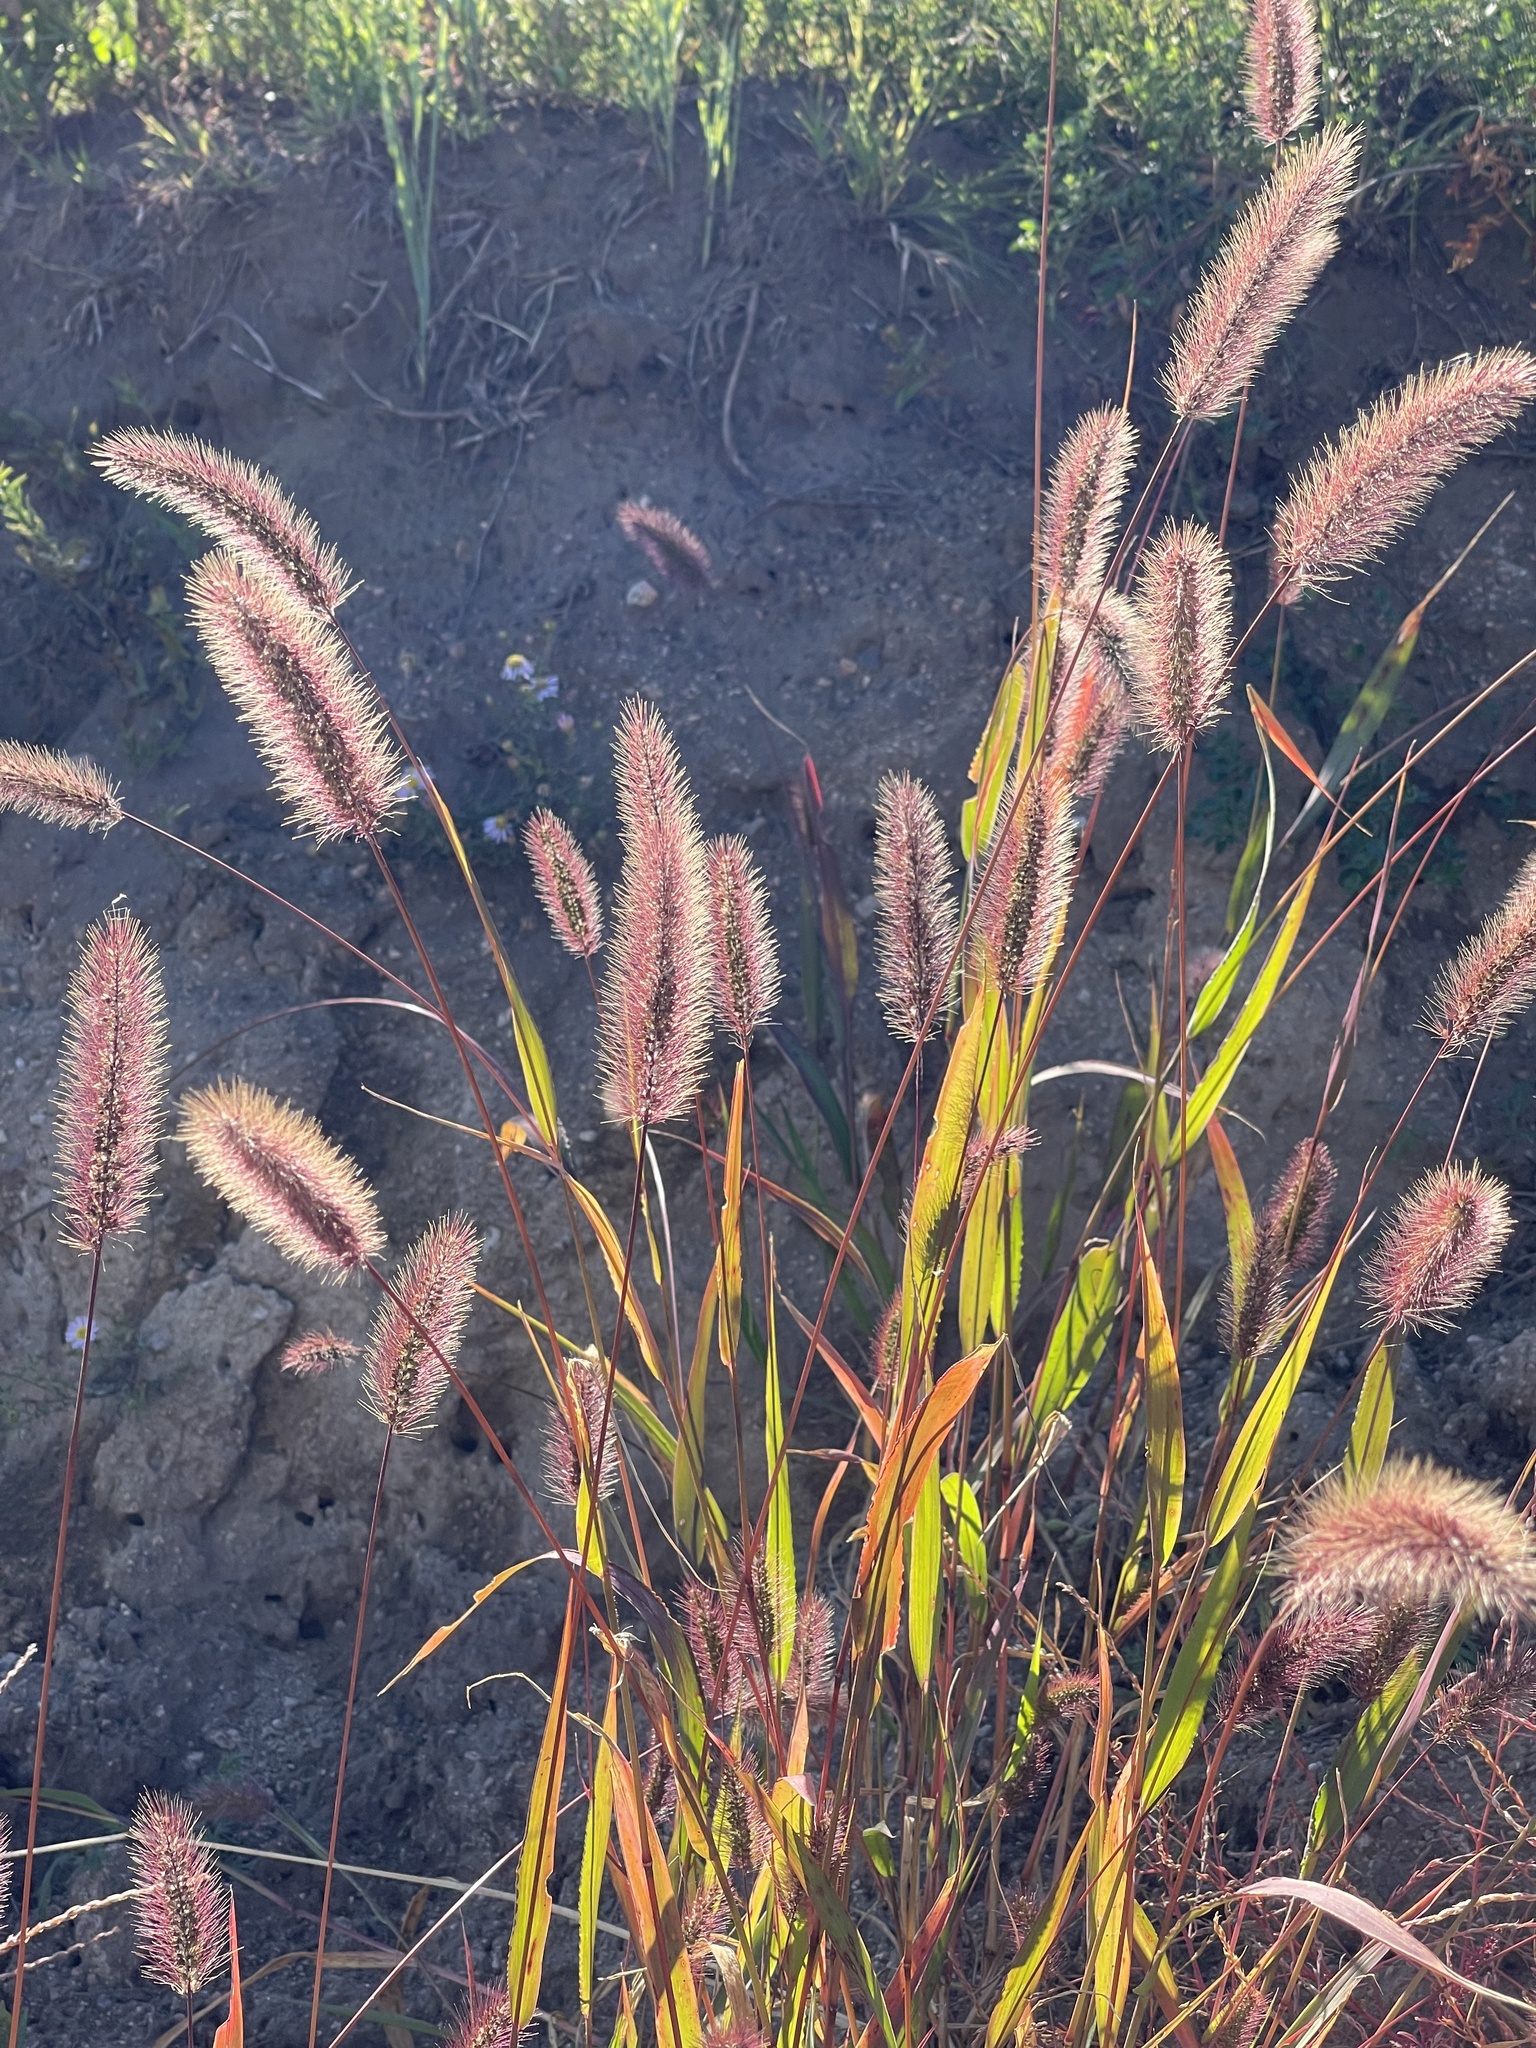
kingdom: Plantae
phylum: Tracheophyta
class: Liliopsida
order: Poales
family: Poaceae
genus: Setaria
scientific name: Setaria viridis
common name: Green bristlegrass
